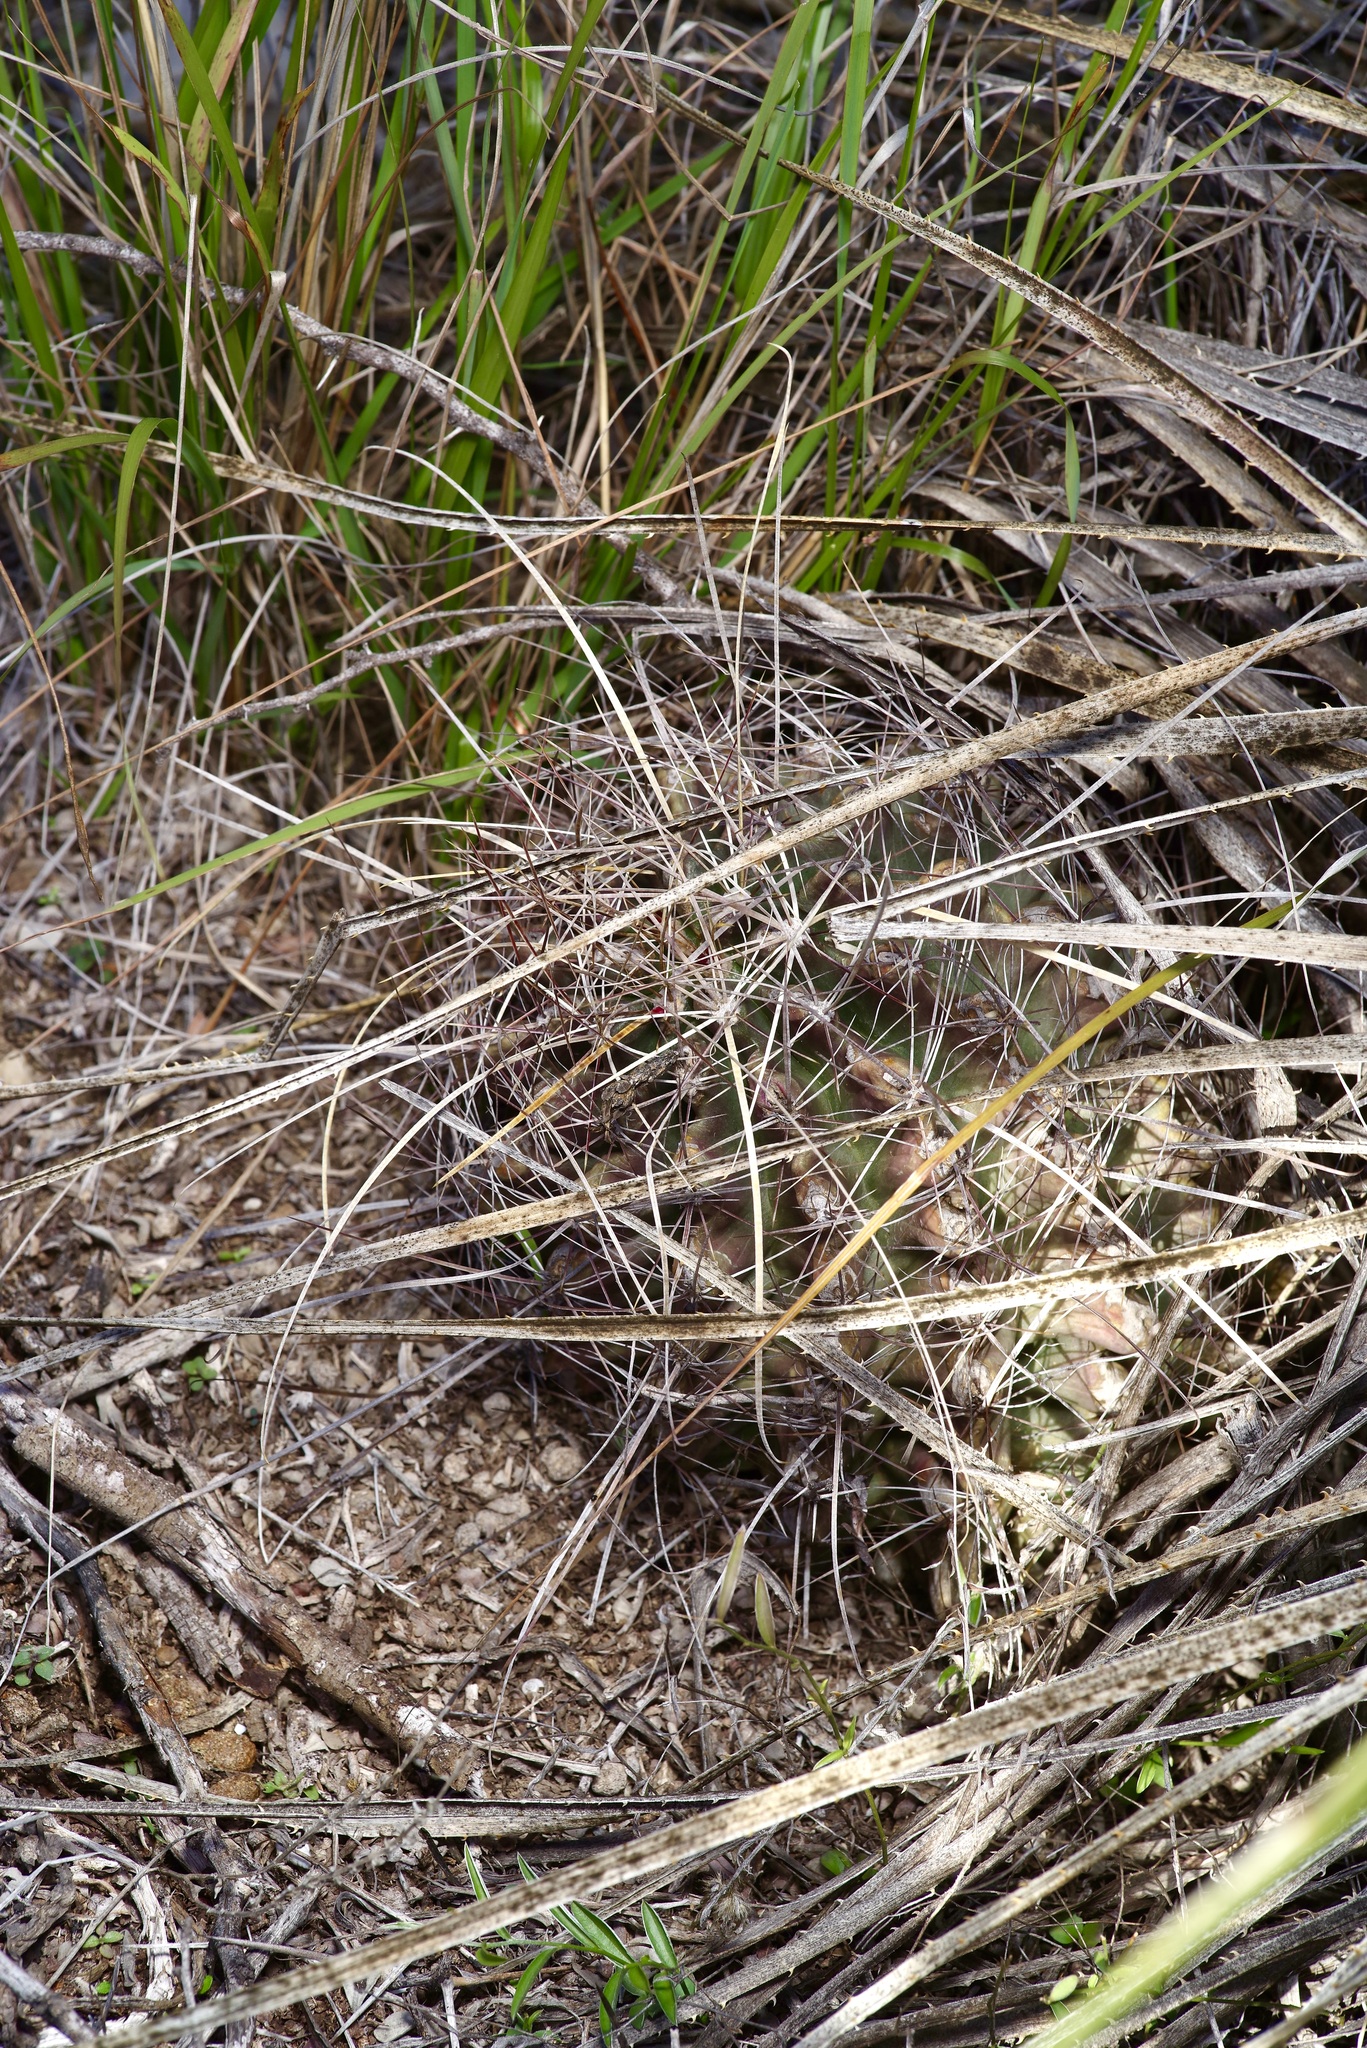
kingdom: Plantae
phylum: Tracheophyta
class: Magnoliopsida
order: Caryophyllales
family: Cactaceae
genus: Bisnaga
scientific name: Bisnaga hamatacantha
